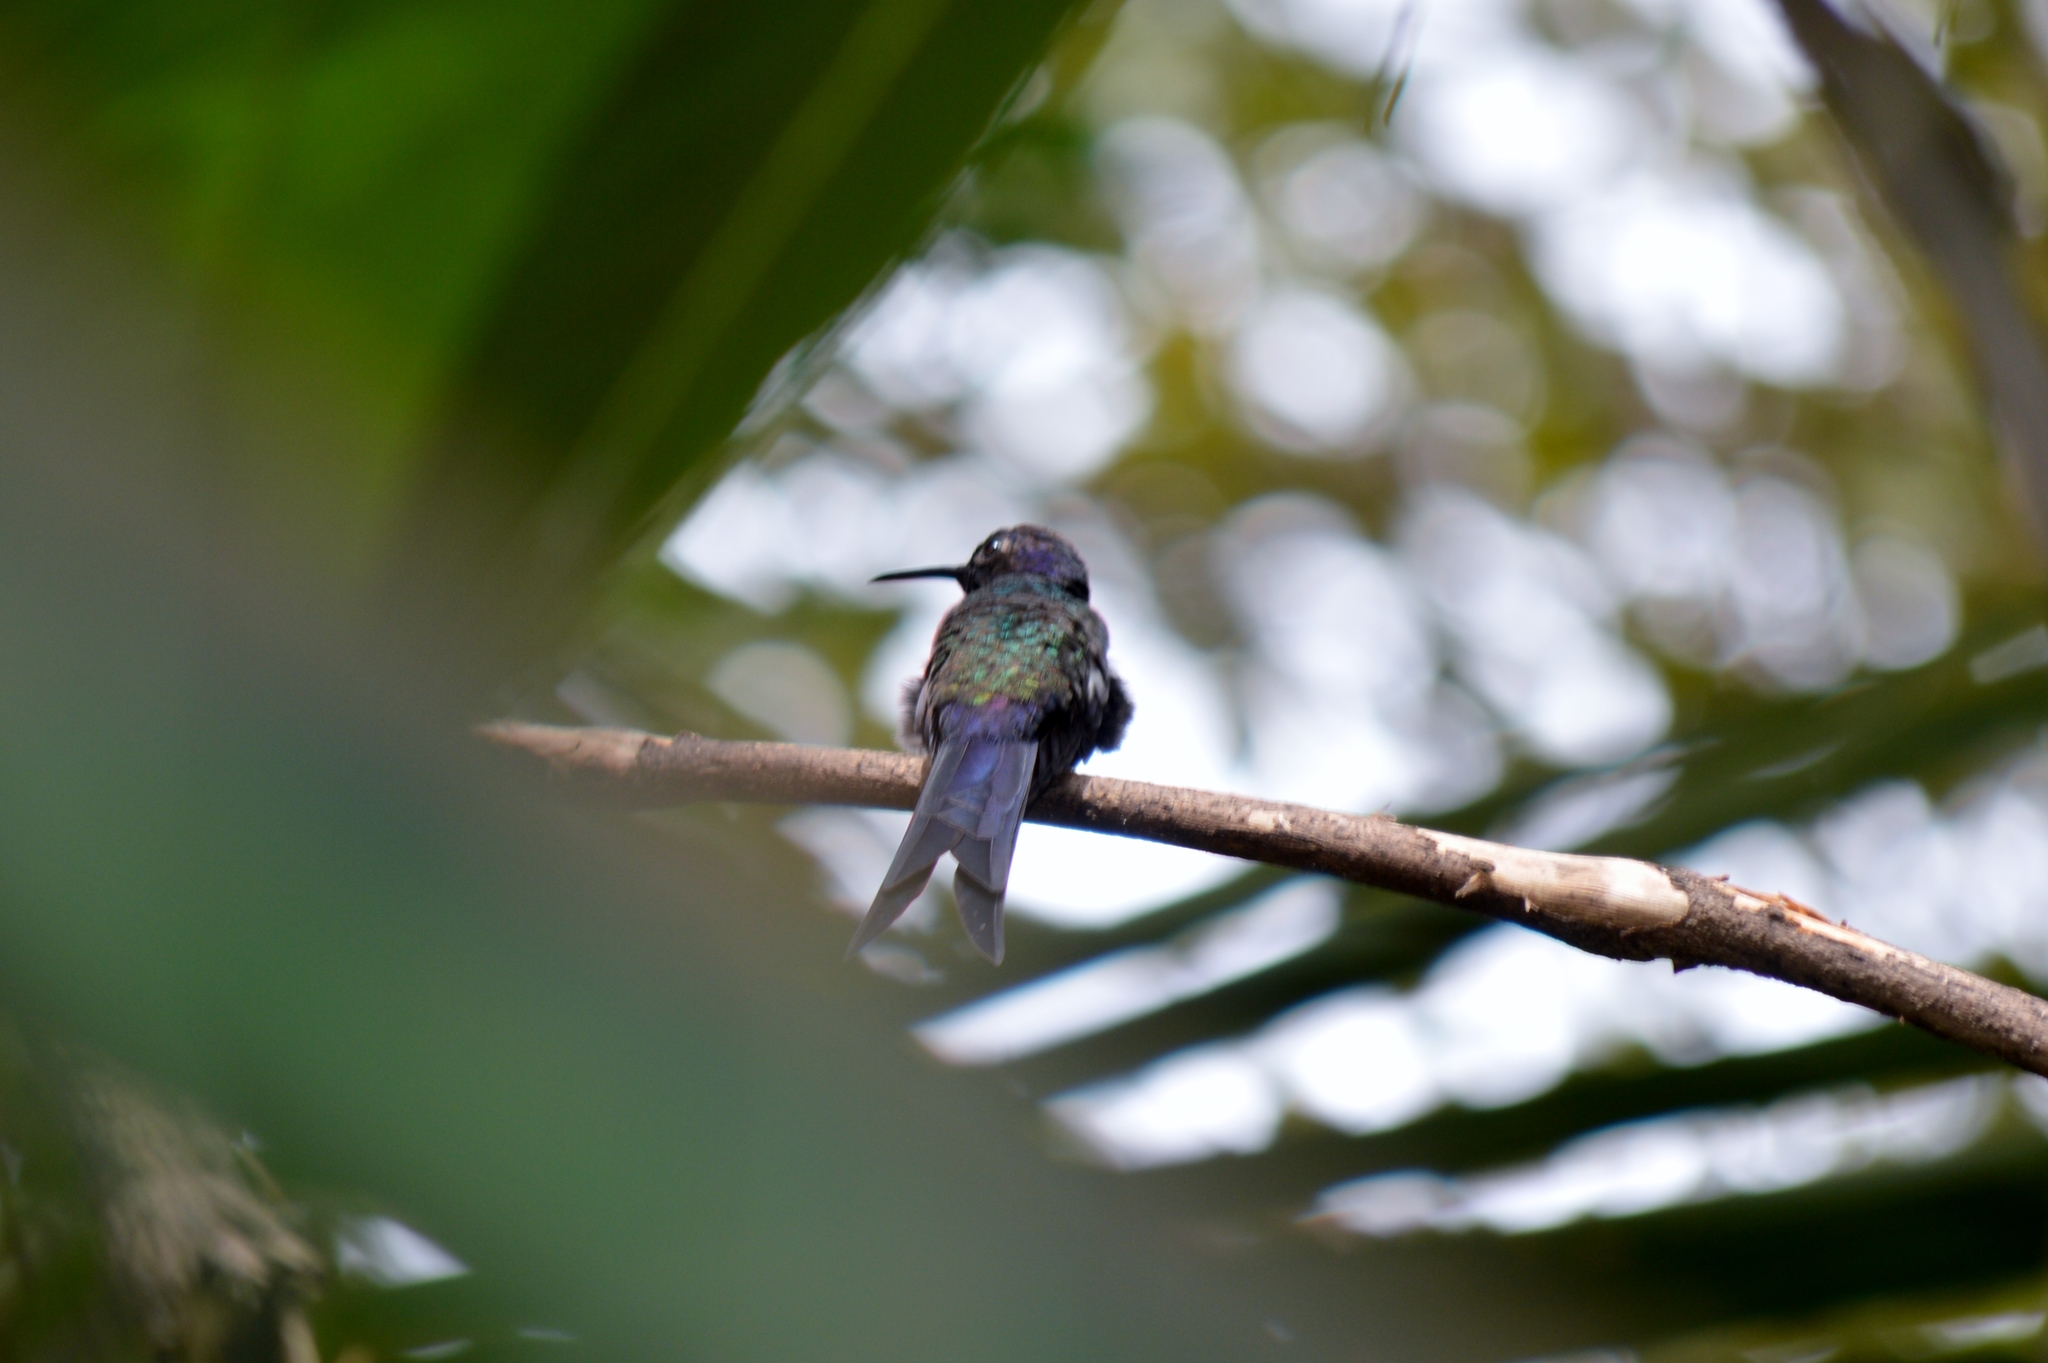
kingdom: Animalia
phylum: Chordata
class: Aves
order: Apodiformes
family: Trochilidae
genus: Eupetomena
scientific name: Eupetomena macroura
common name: Swallow-tailed hummingbird
